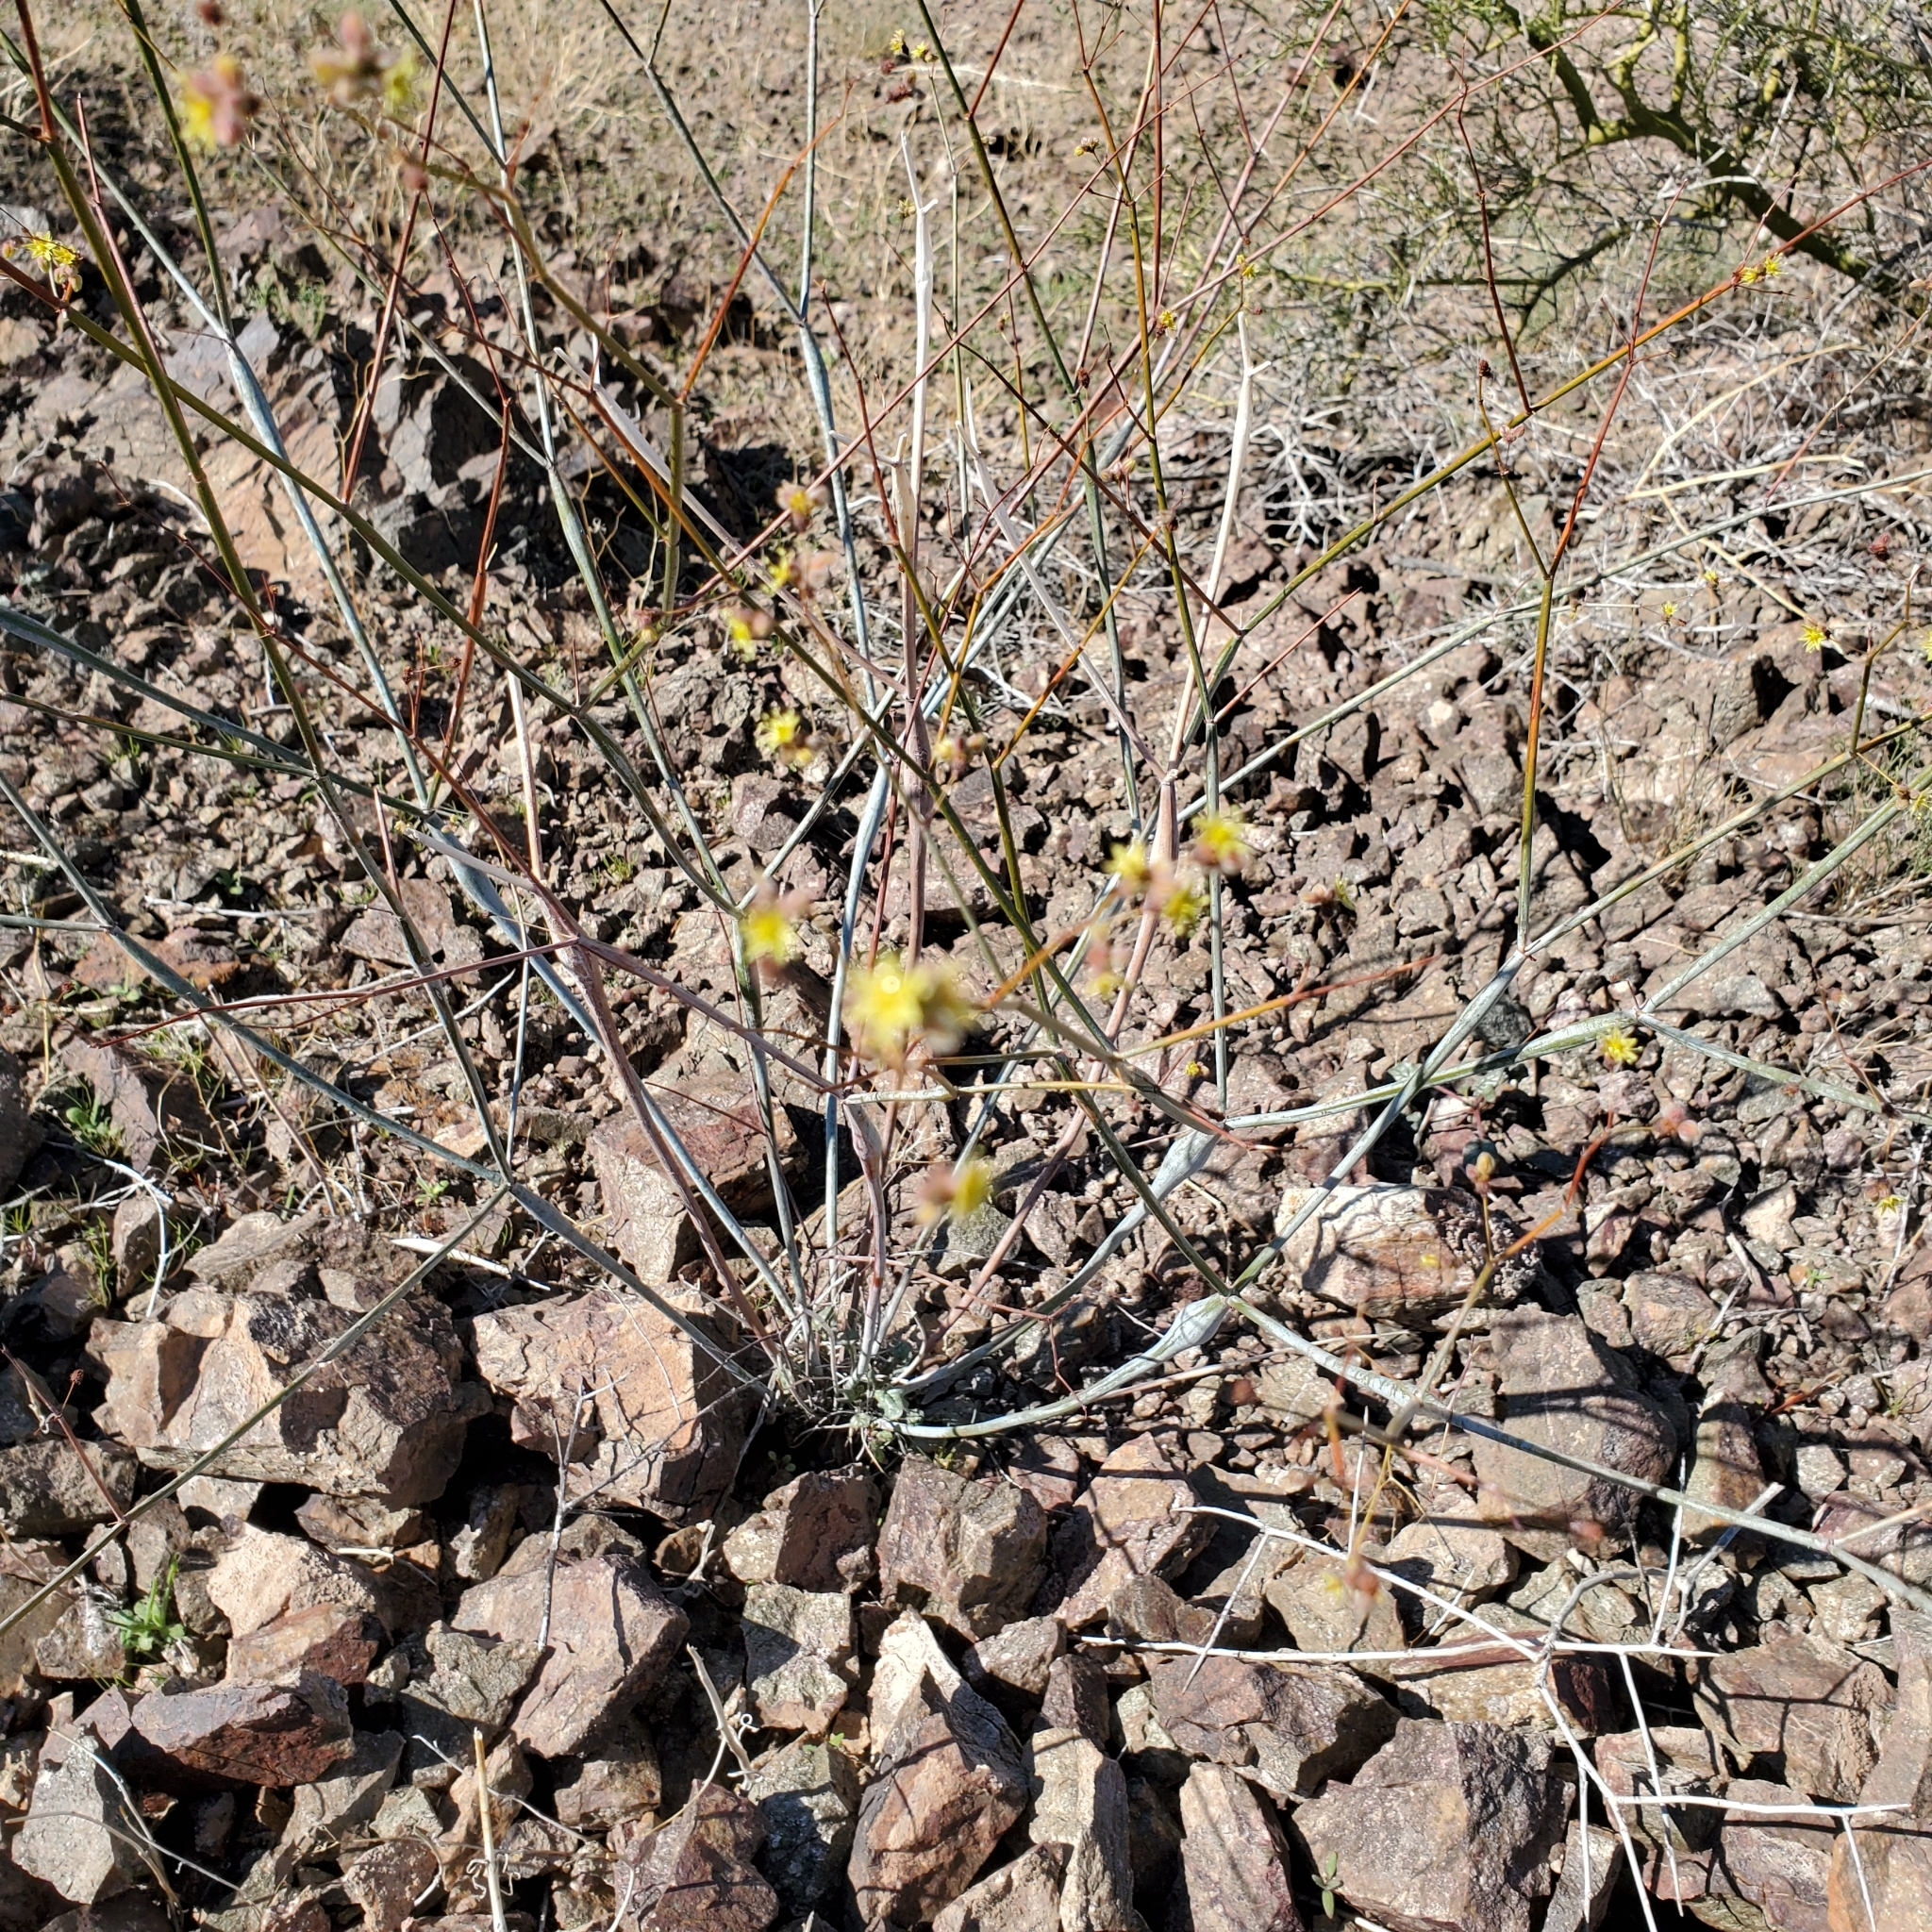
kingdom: Plantae
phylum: Tracheophyta
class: Magnoliopsida
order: Caryophyllales
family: Polygonaceae
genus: Eriogonum
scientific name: Eriogonum inflatum
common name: Desert trumpet
